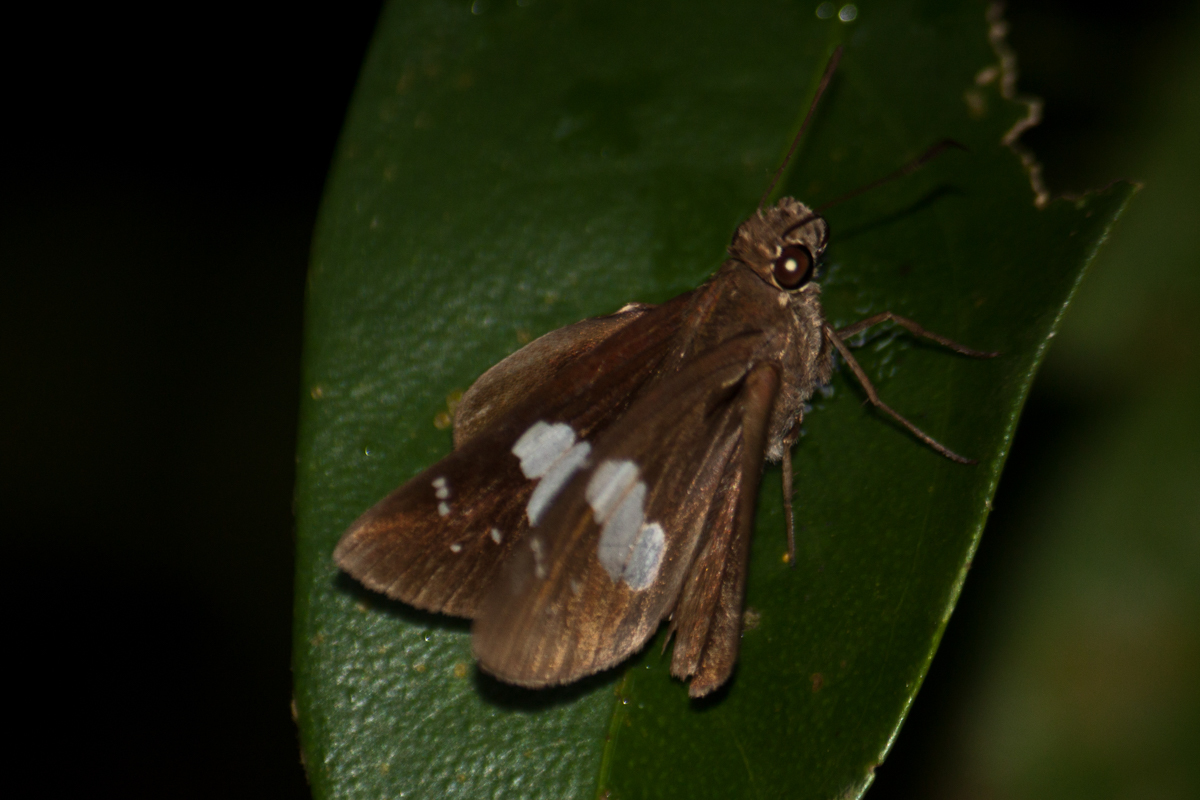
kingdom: Animalia
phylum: Arthropoda
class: Insecta
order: Lepidoptera
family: Hesperiidae
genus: Notocrypta
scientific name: Notocrypta curvifascia
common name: Restricted demon
